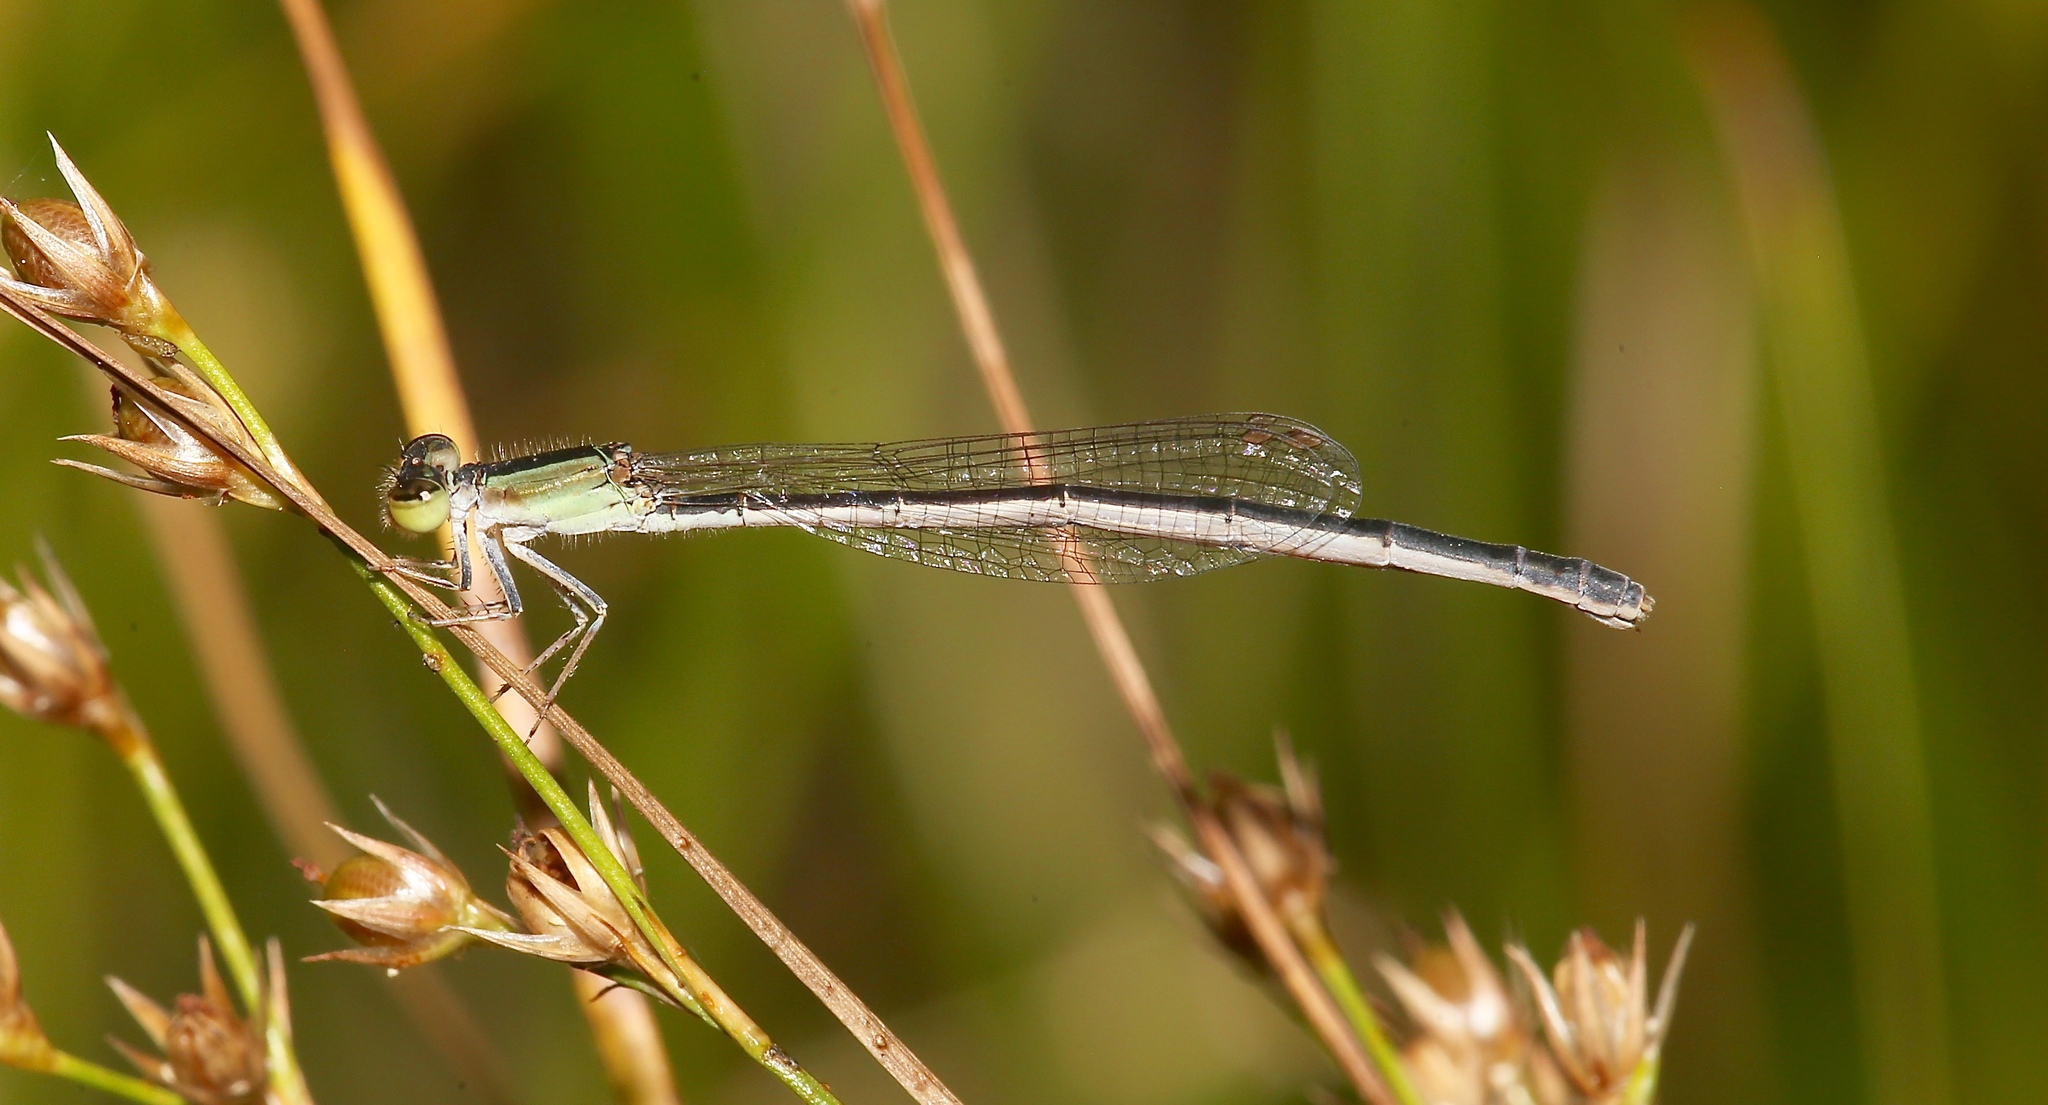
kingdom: Animalia
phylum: Arthropoda
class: Insecta
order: Odonata
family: Coenagrionidae
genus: Ischnura
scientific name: Ischnura hastata
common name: Citrine forktail
